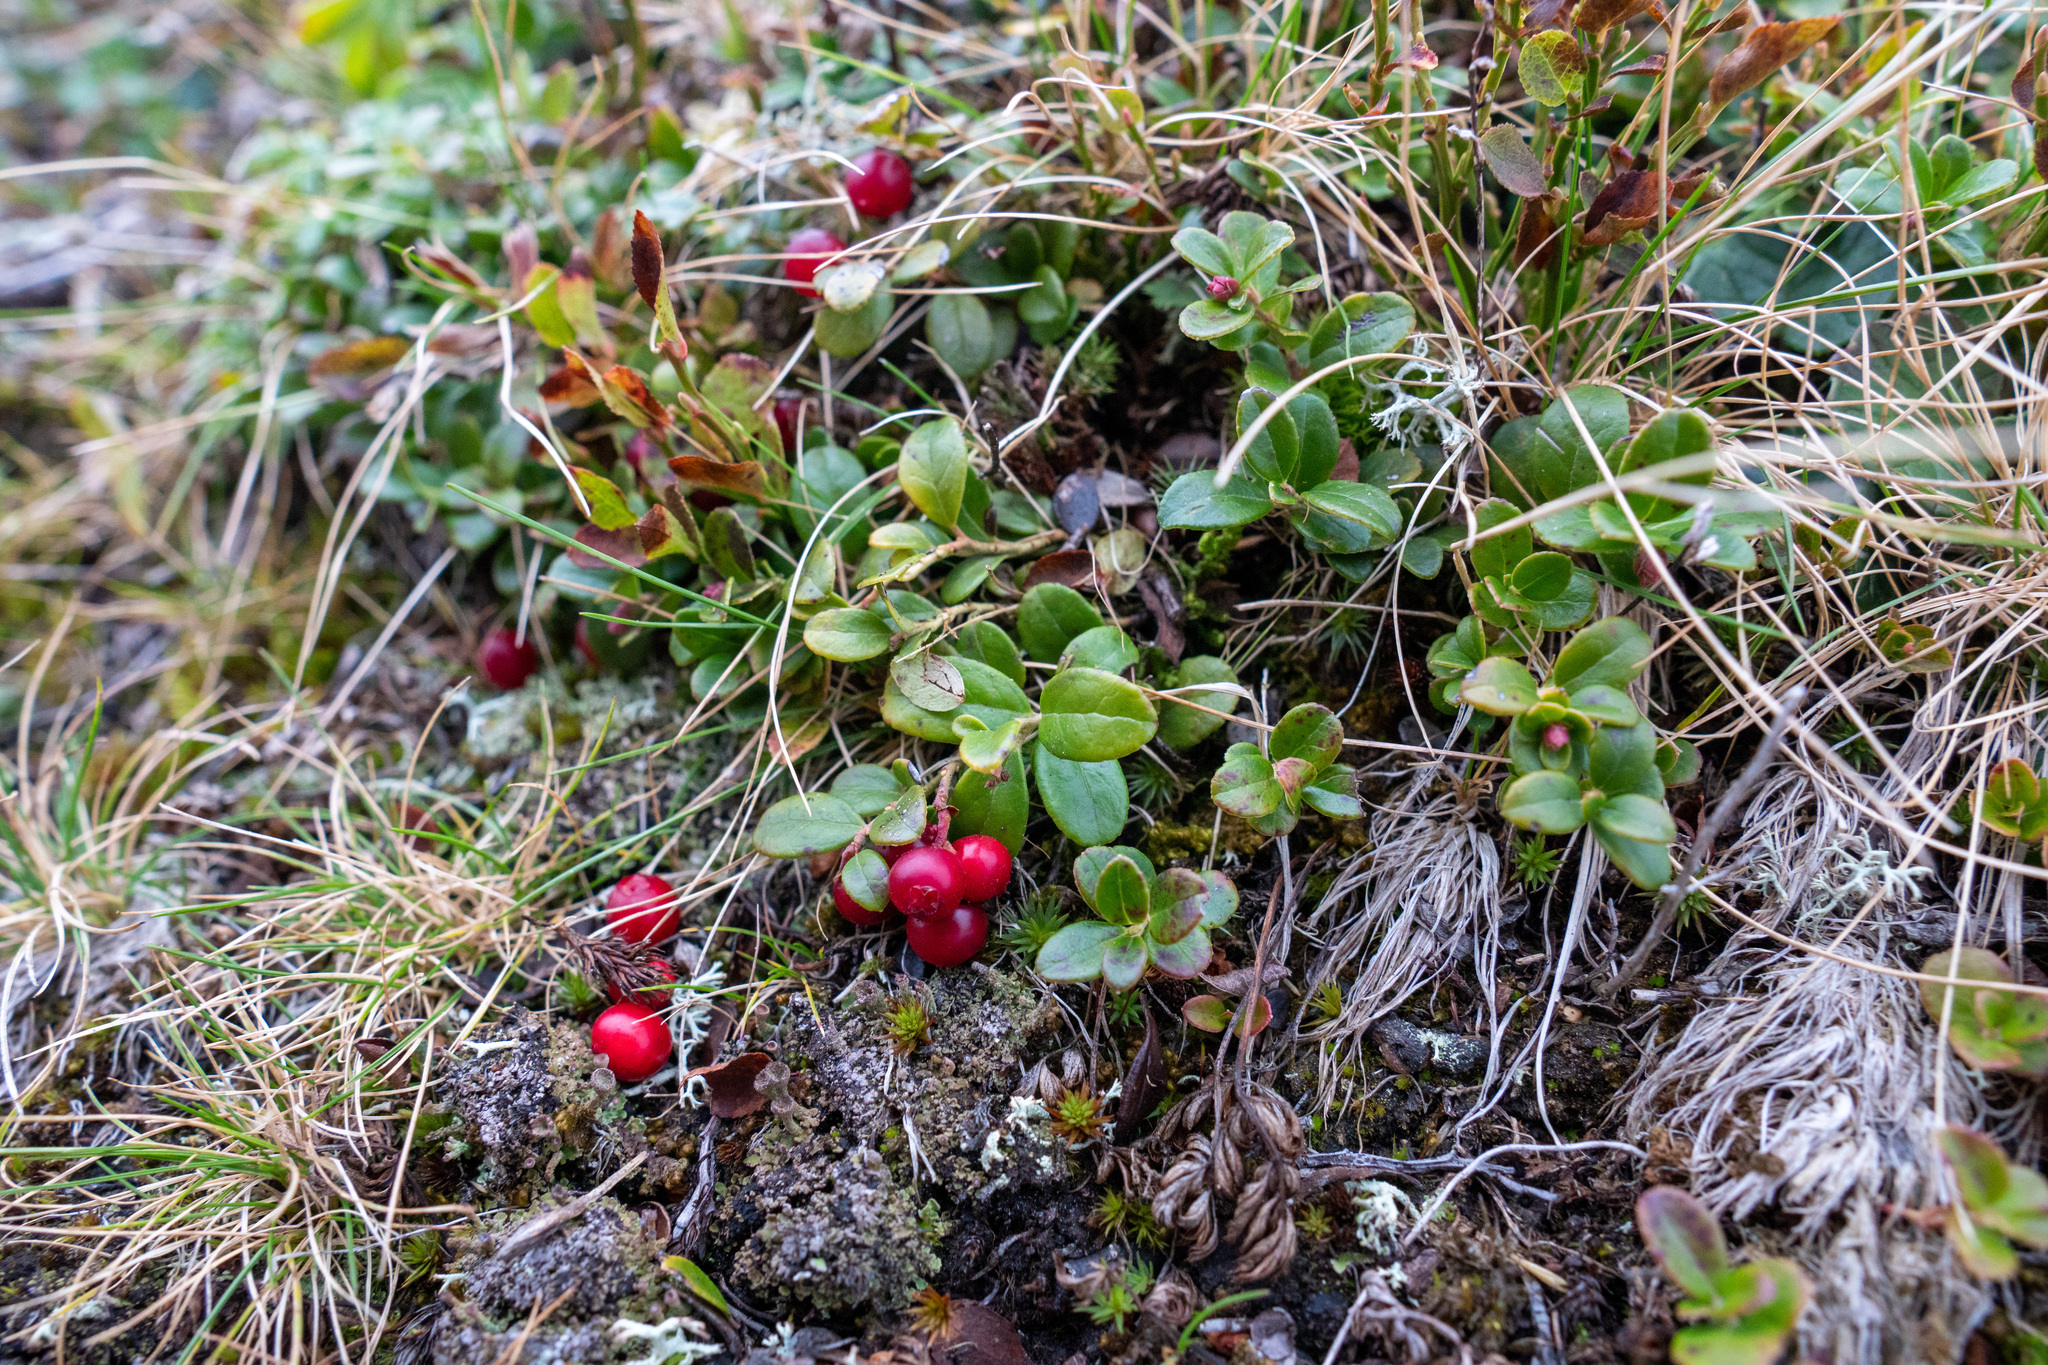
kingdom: Plantae
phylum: Tracheophyta
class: Magnoliopsida
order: Ericales
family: Ericaceae
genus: Vaccinium
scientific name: Vaccinium vitis-idaea
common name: Cowberry
